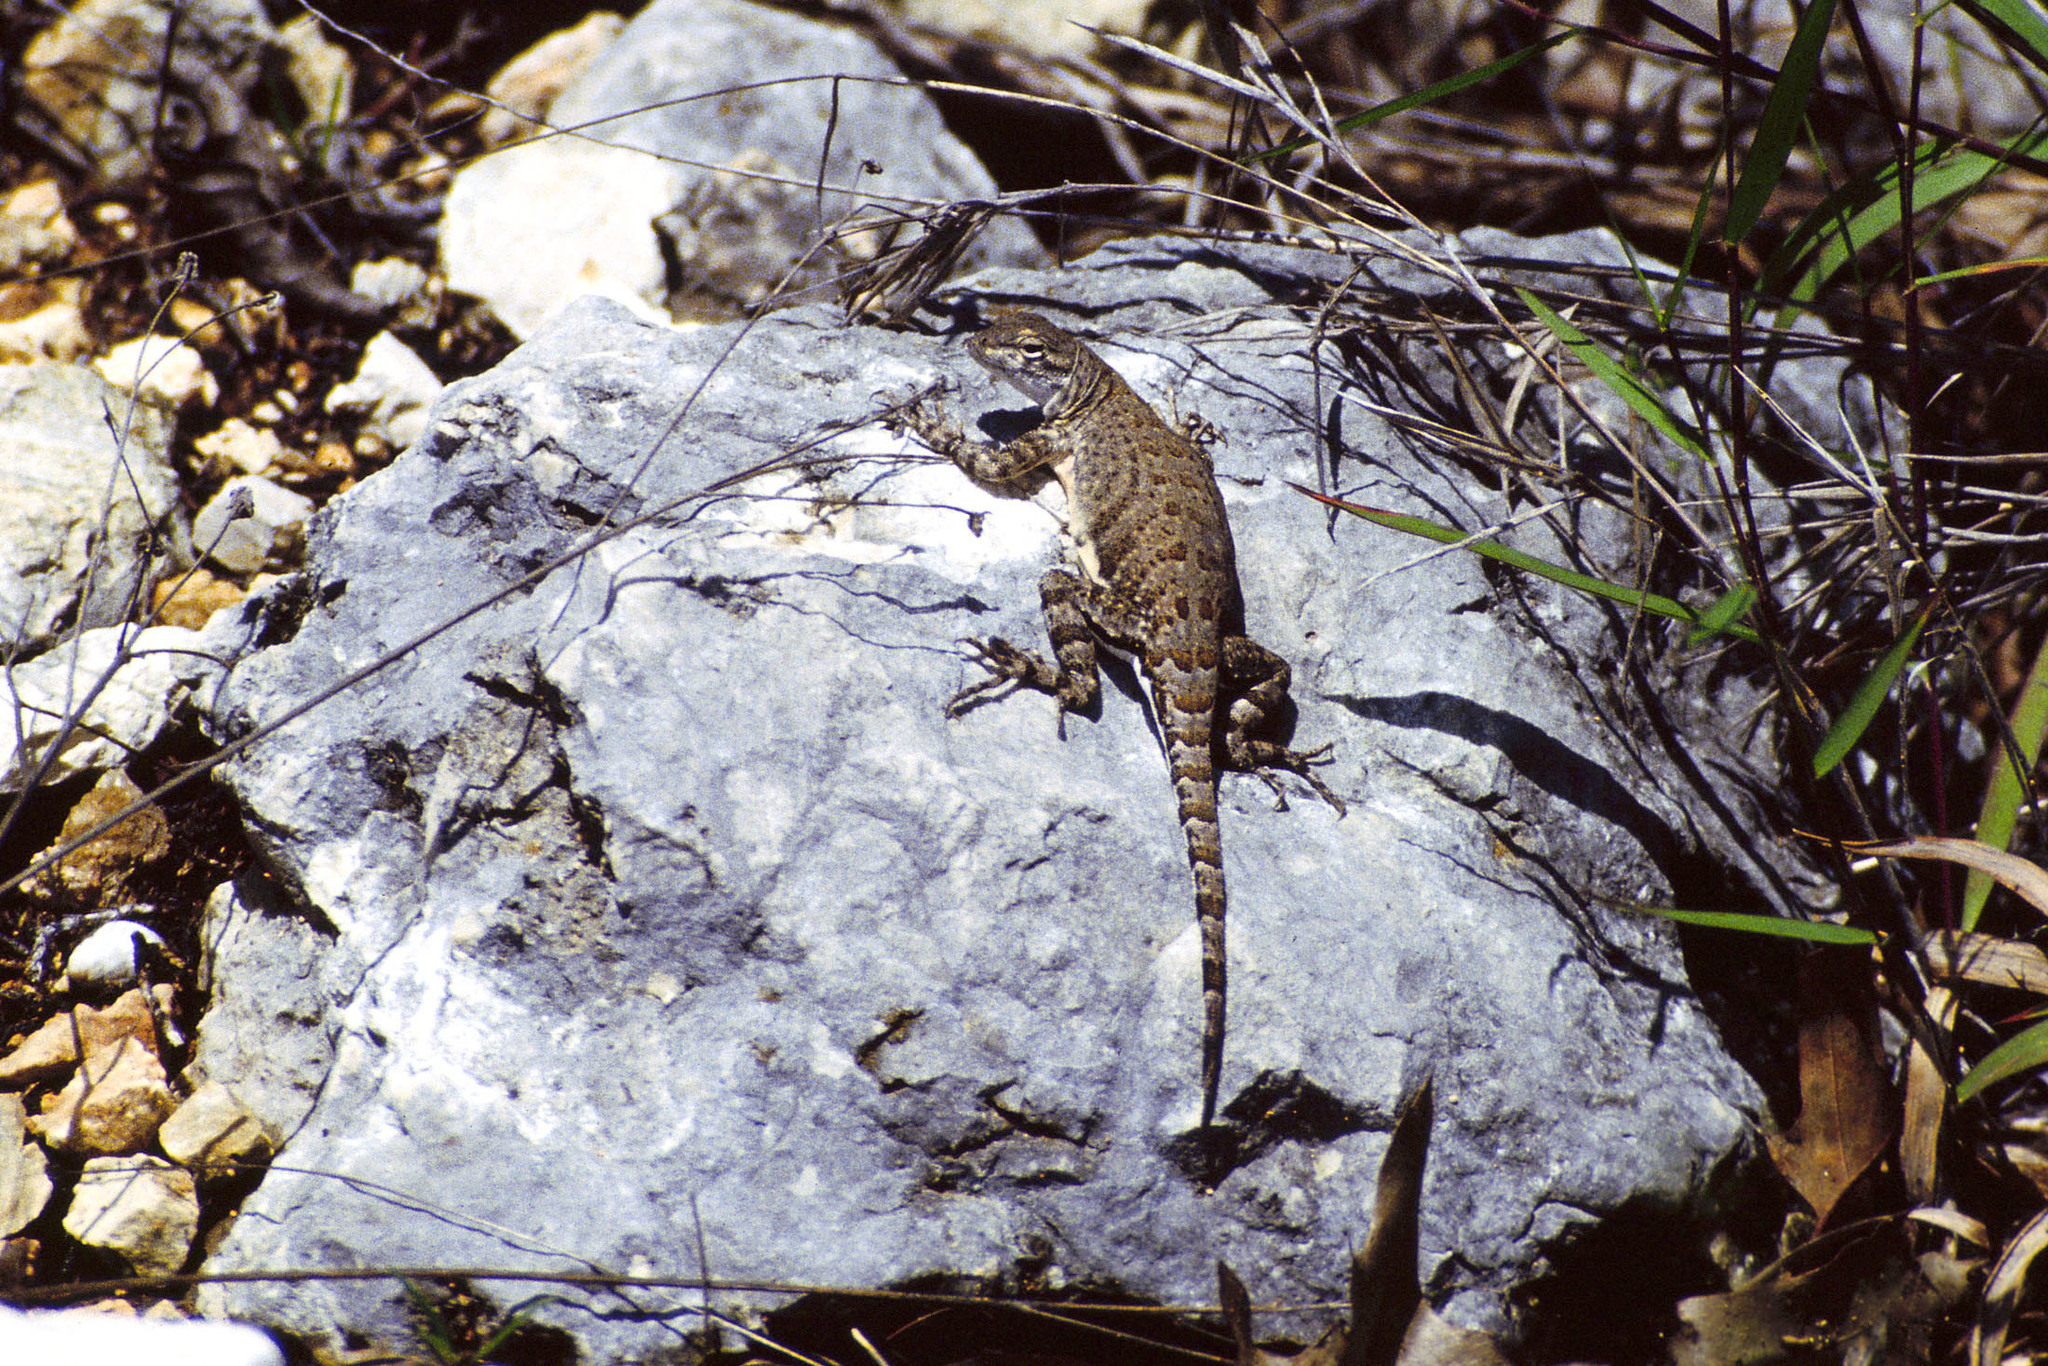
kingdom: Animalia
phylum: Chordata
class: Squamata
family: Phrynosomatidae
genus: Cophosaurus
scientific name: Cophosaurus texanus
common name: Greater earless lizard
